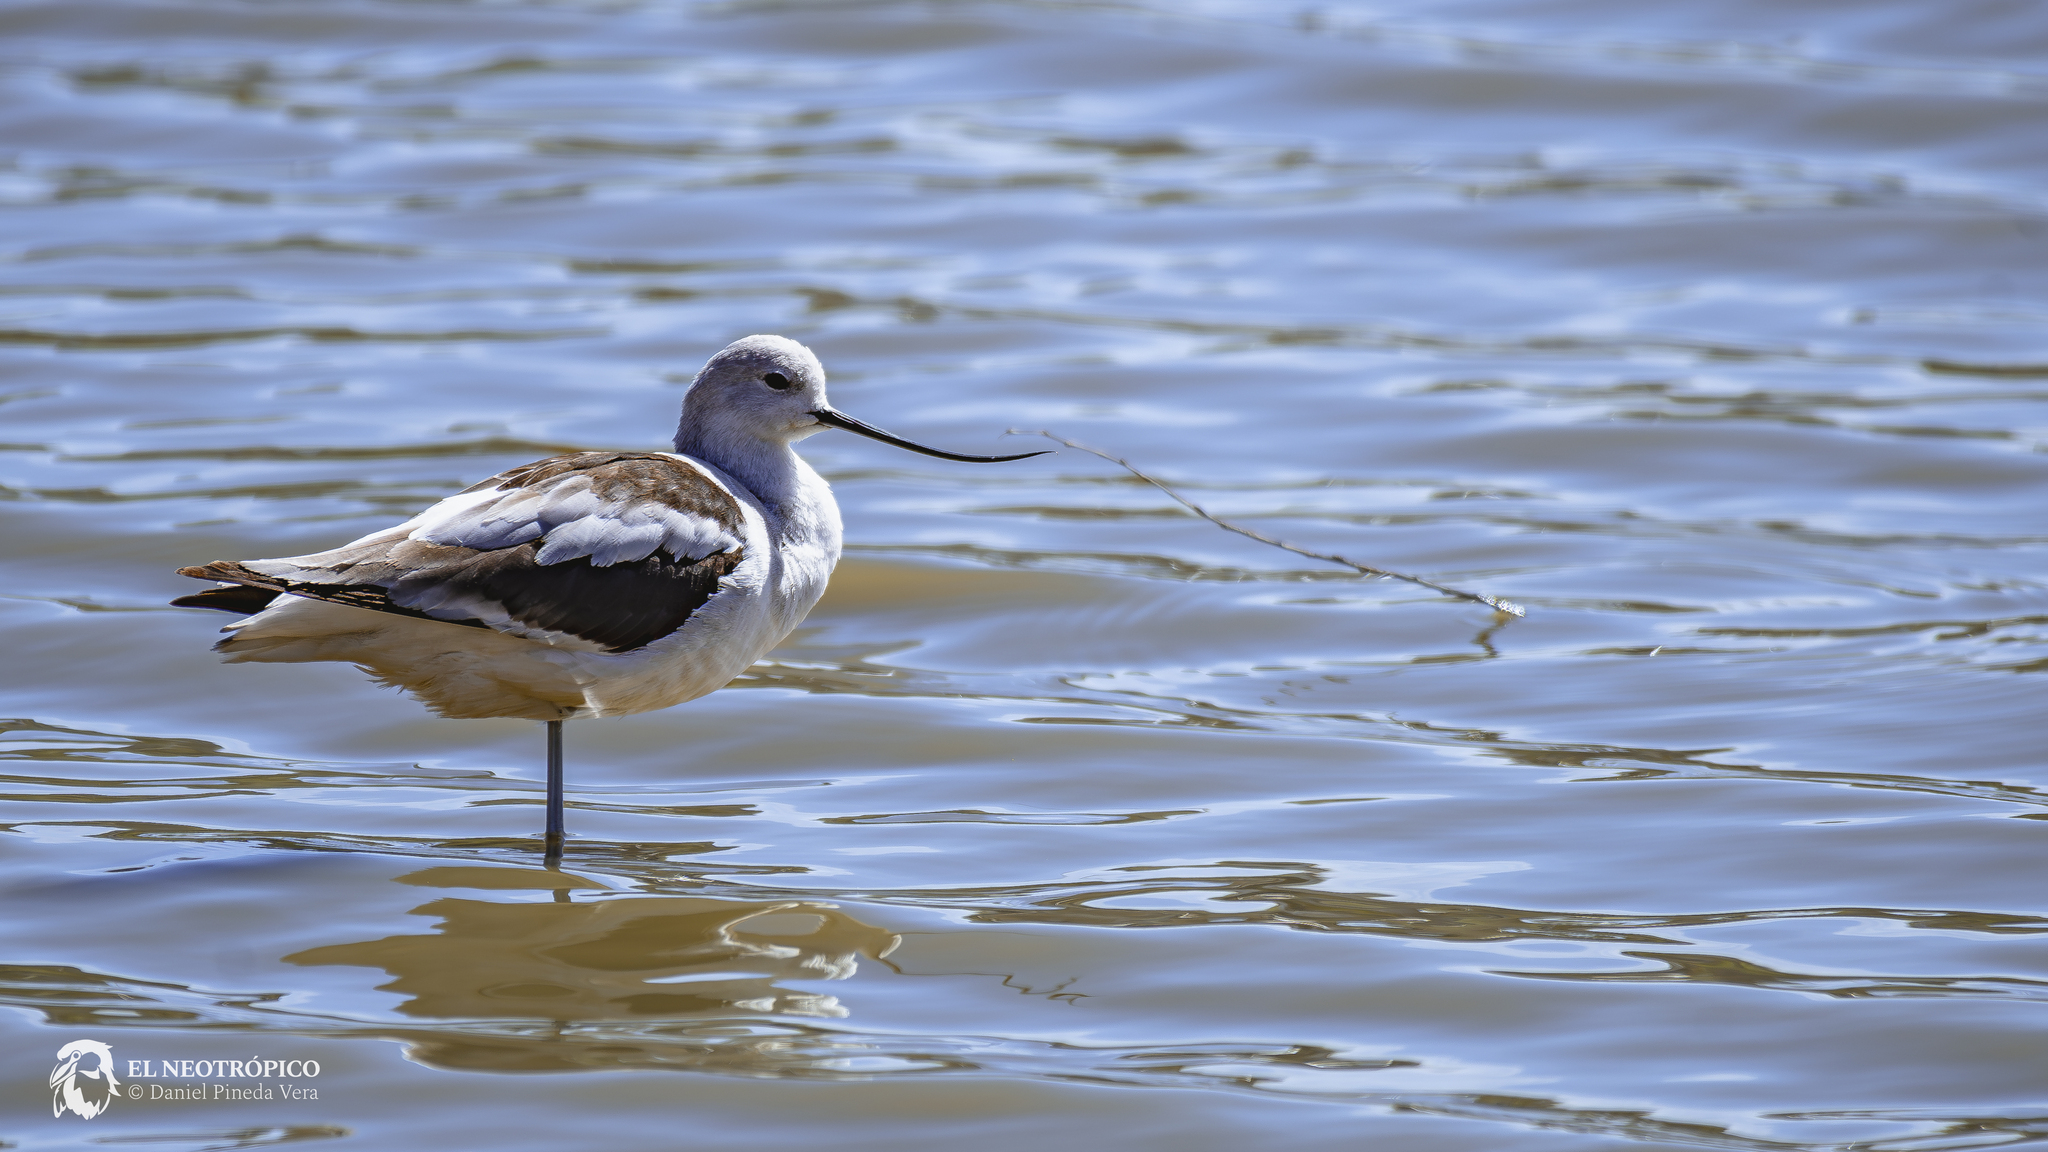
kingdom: Animalia
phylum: Chordata
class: Aves
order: Charadriiformes
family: Recurvirostridae
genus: Recurvirostra
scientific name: Recurvirostra americana
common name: American avocet
